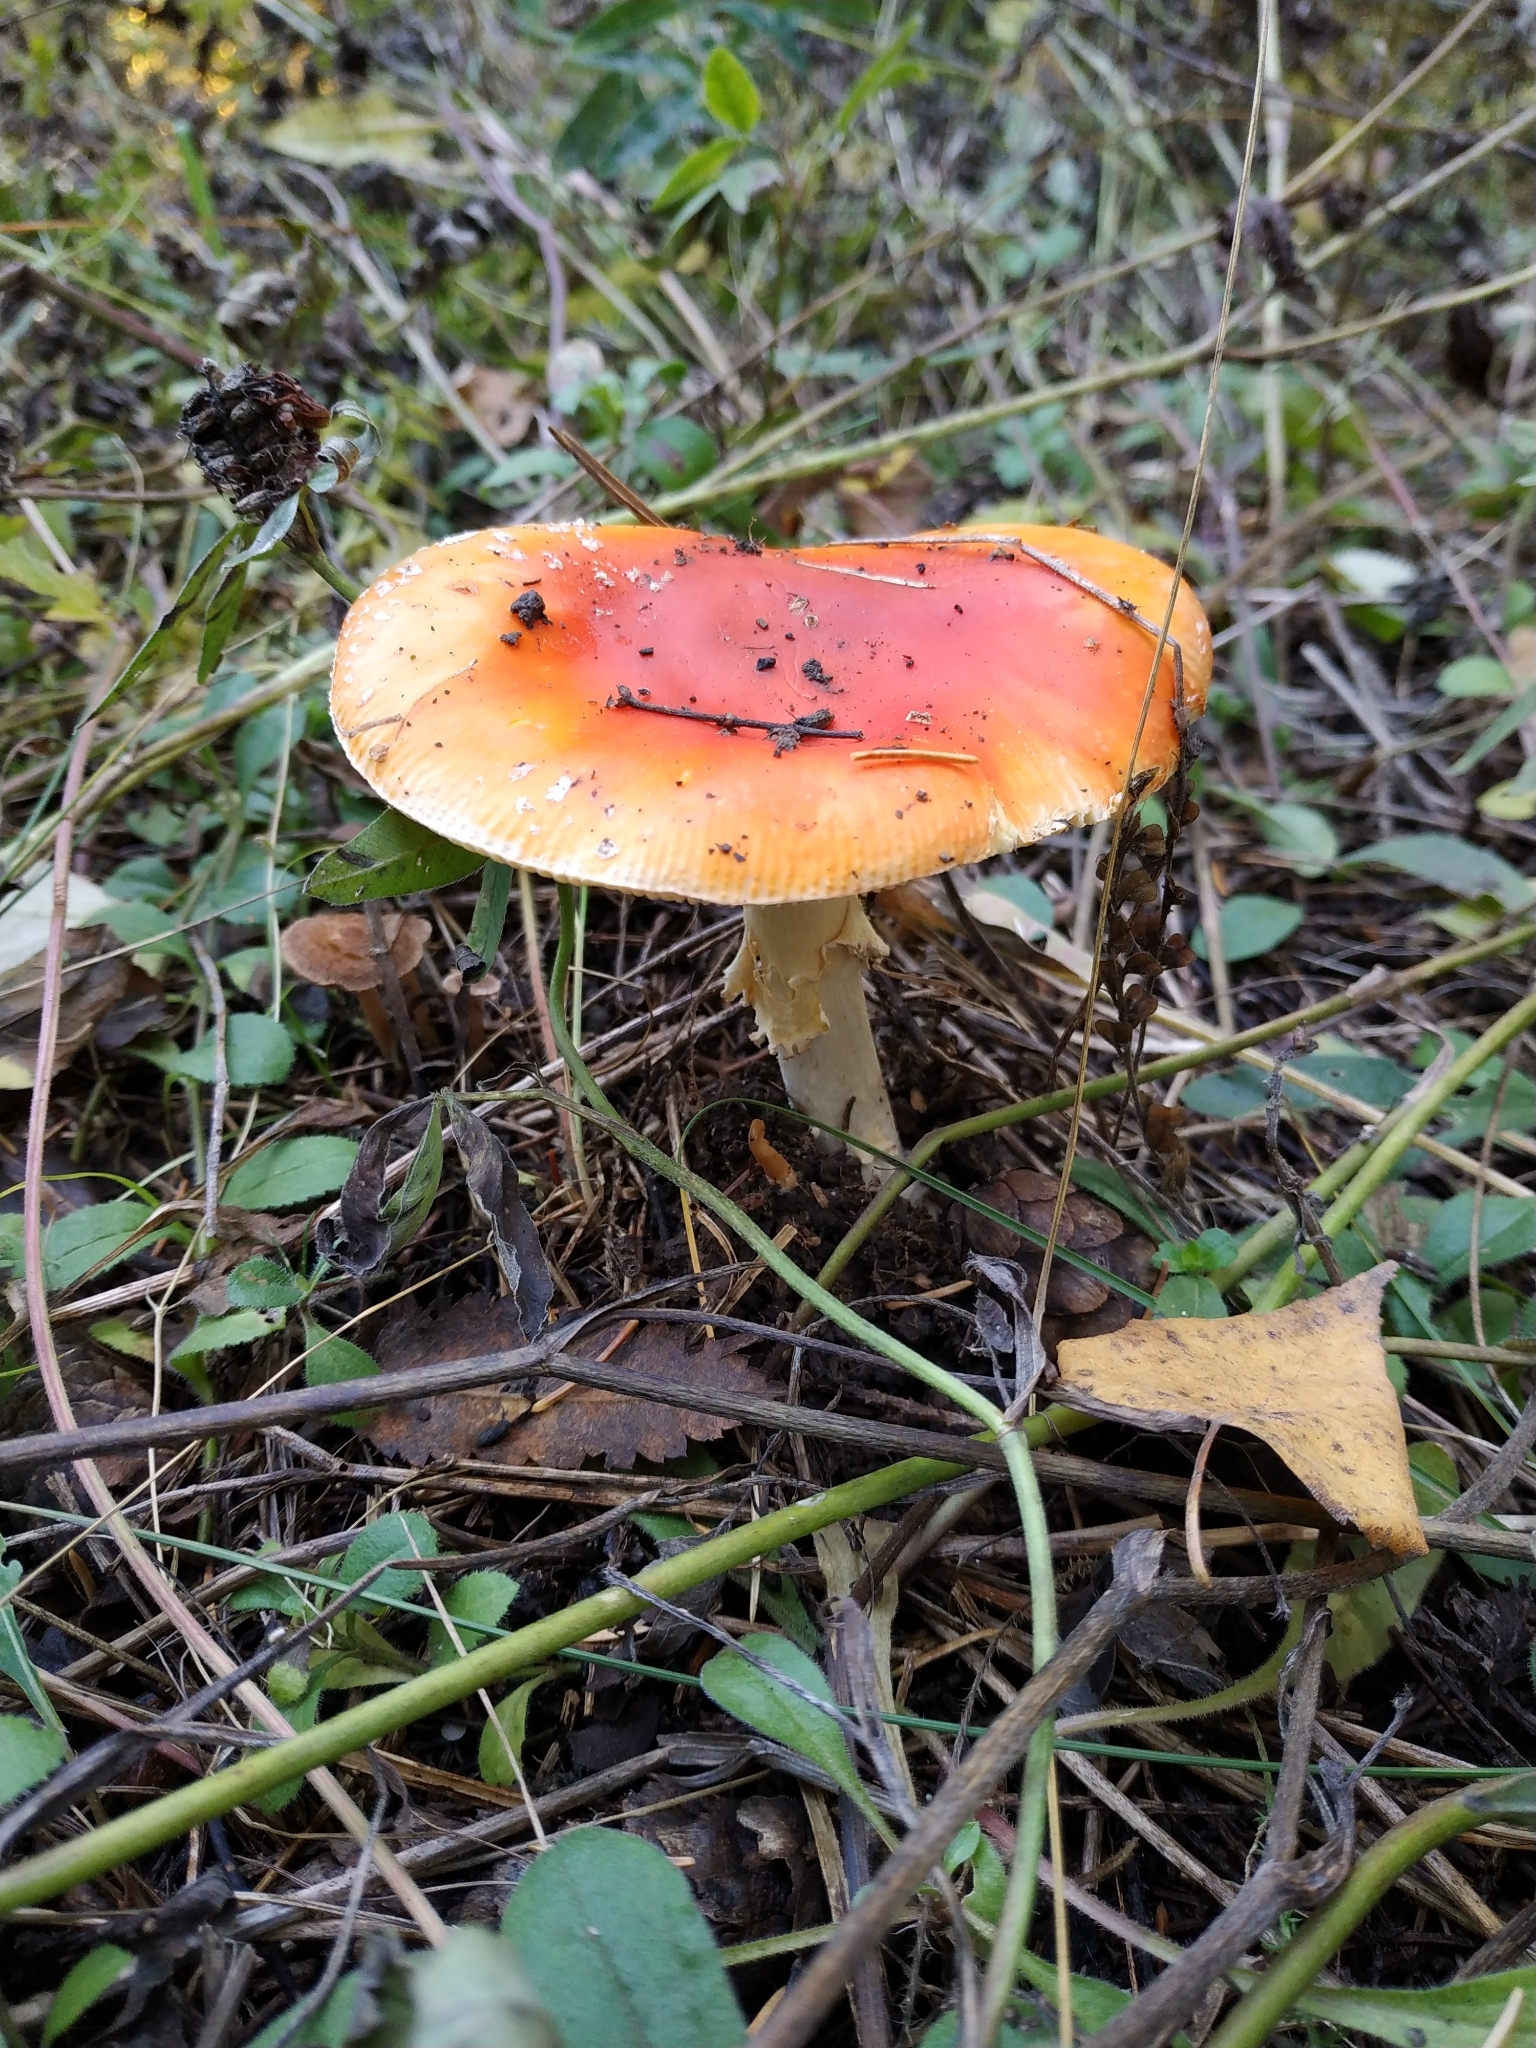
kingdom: Fungi
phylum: Basidiomycota
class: Agaricomycetes
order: Agaricales
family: Amanitaceae
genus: Amanita
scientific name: Amanita muscaria
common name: Fly agaric
